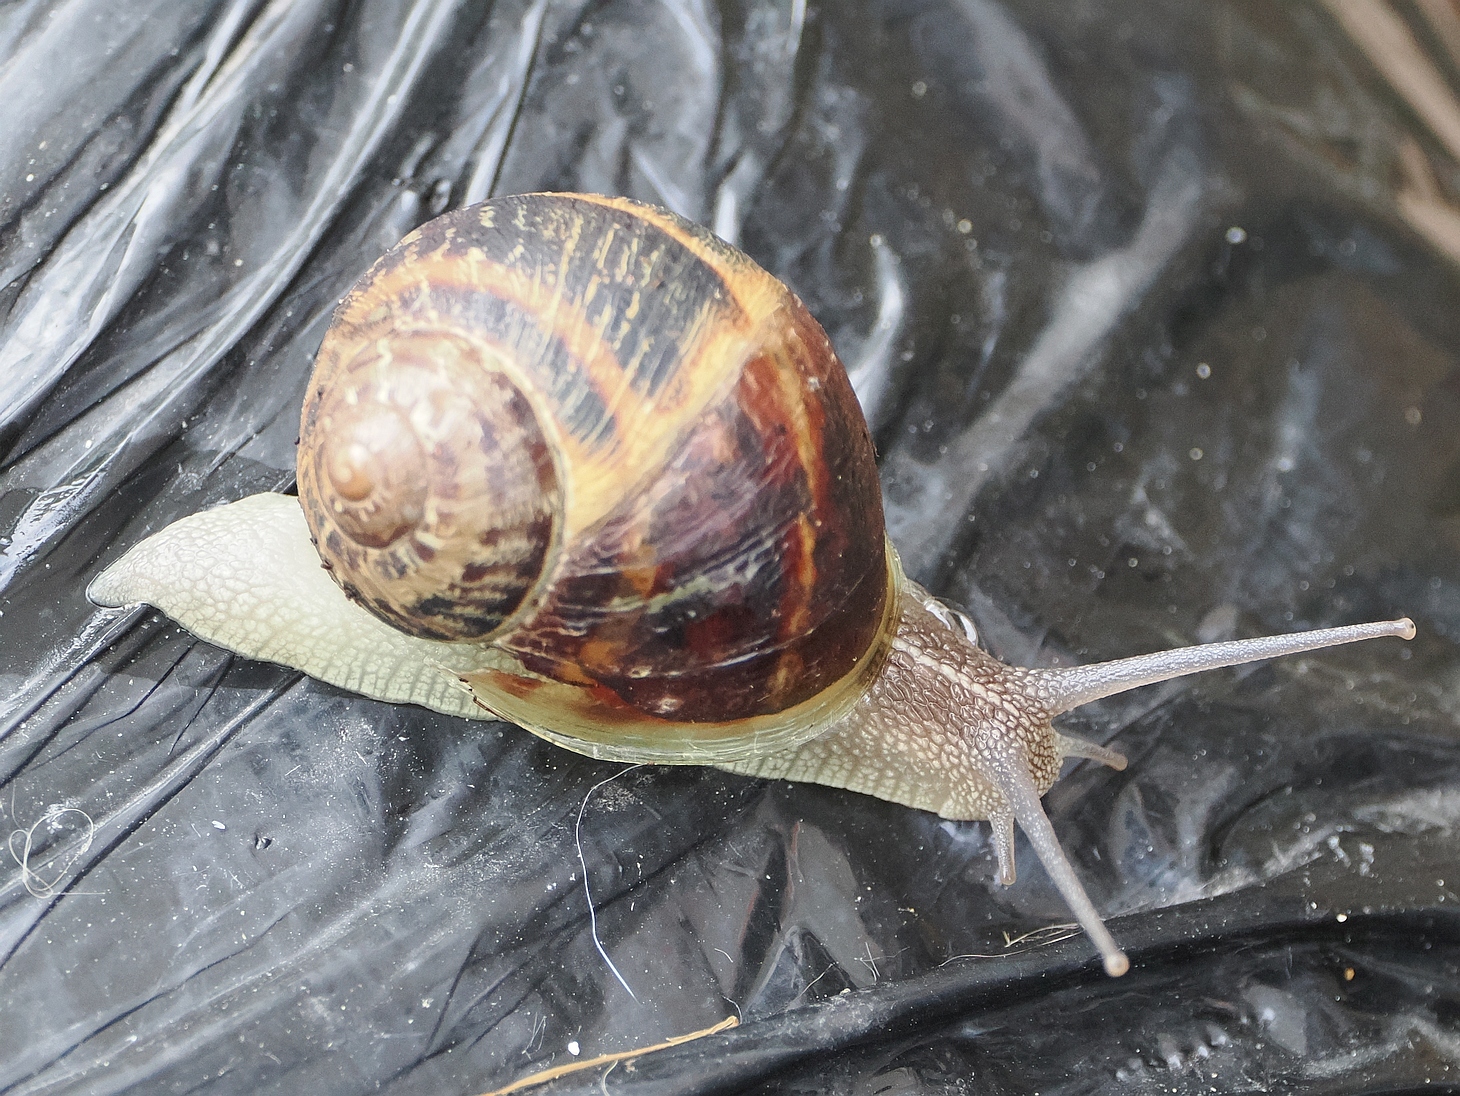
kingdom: Animalia
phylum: Mollusca
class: Gastropoda
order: Stylommatophora
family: Helicidae
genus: Cornu
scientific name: Cornu aspersum
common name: Brown garden snail
